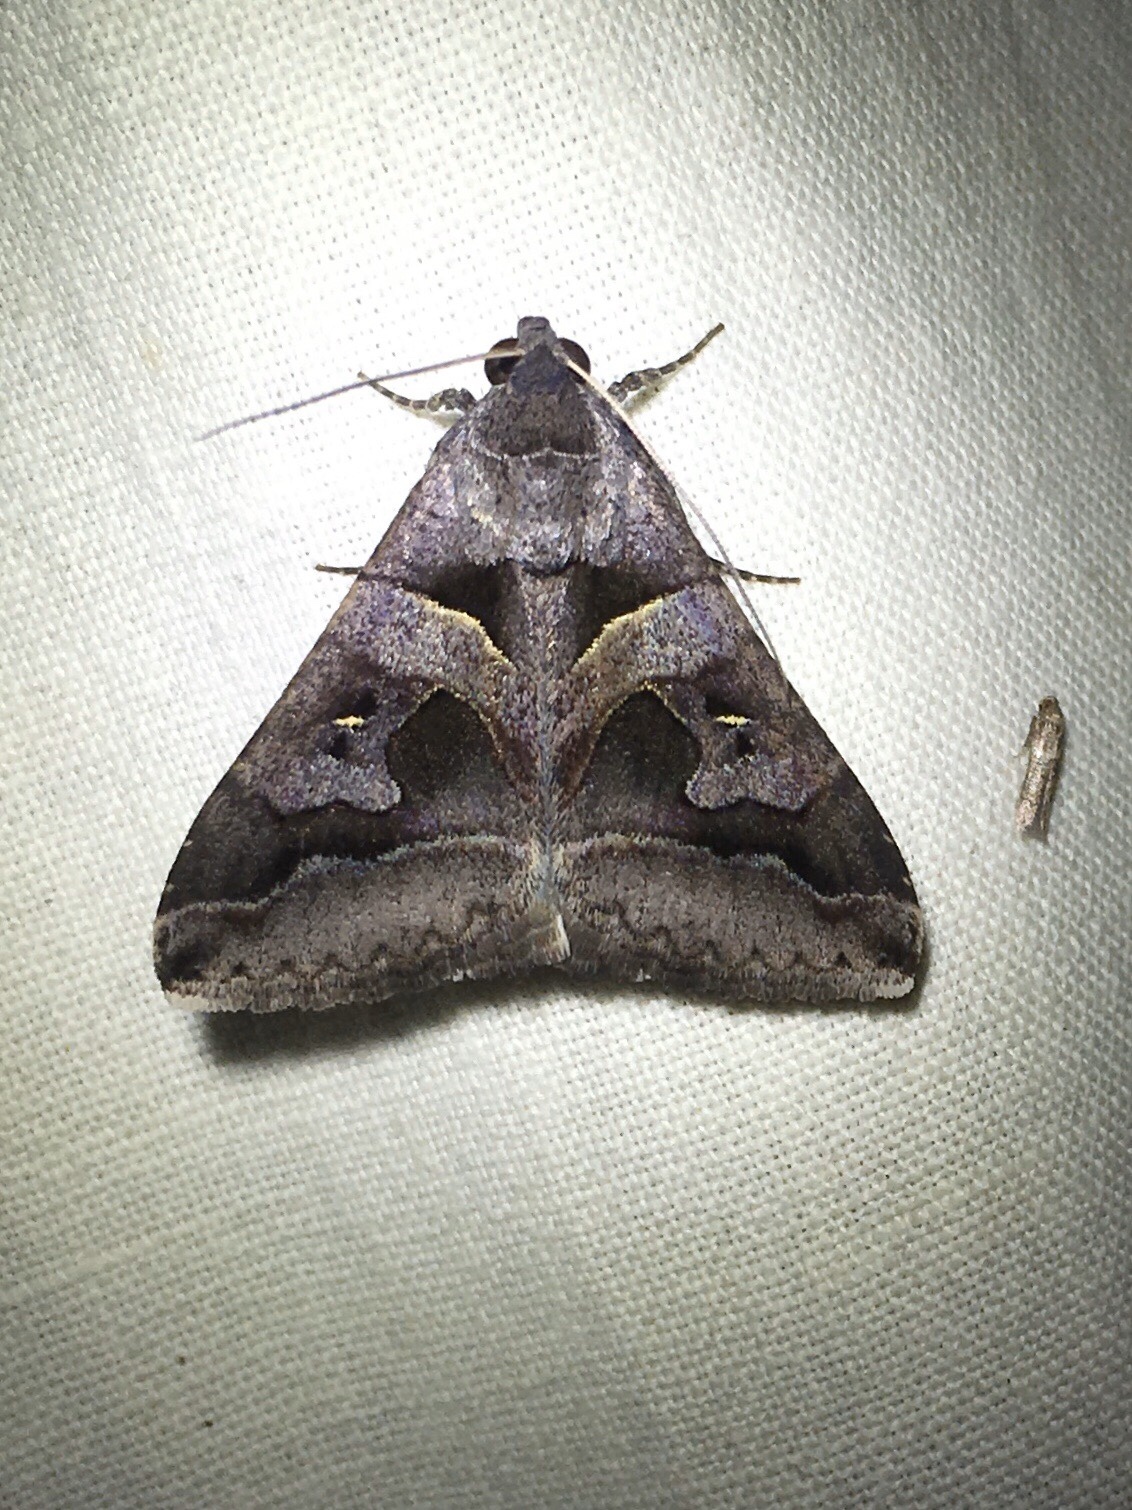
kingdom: Animalia
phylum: Arthropoda
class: Insecta
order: Lepidoptera
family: Erebidae
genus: Melipotis
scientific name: Melipotis florida
